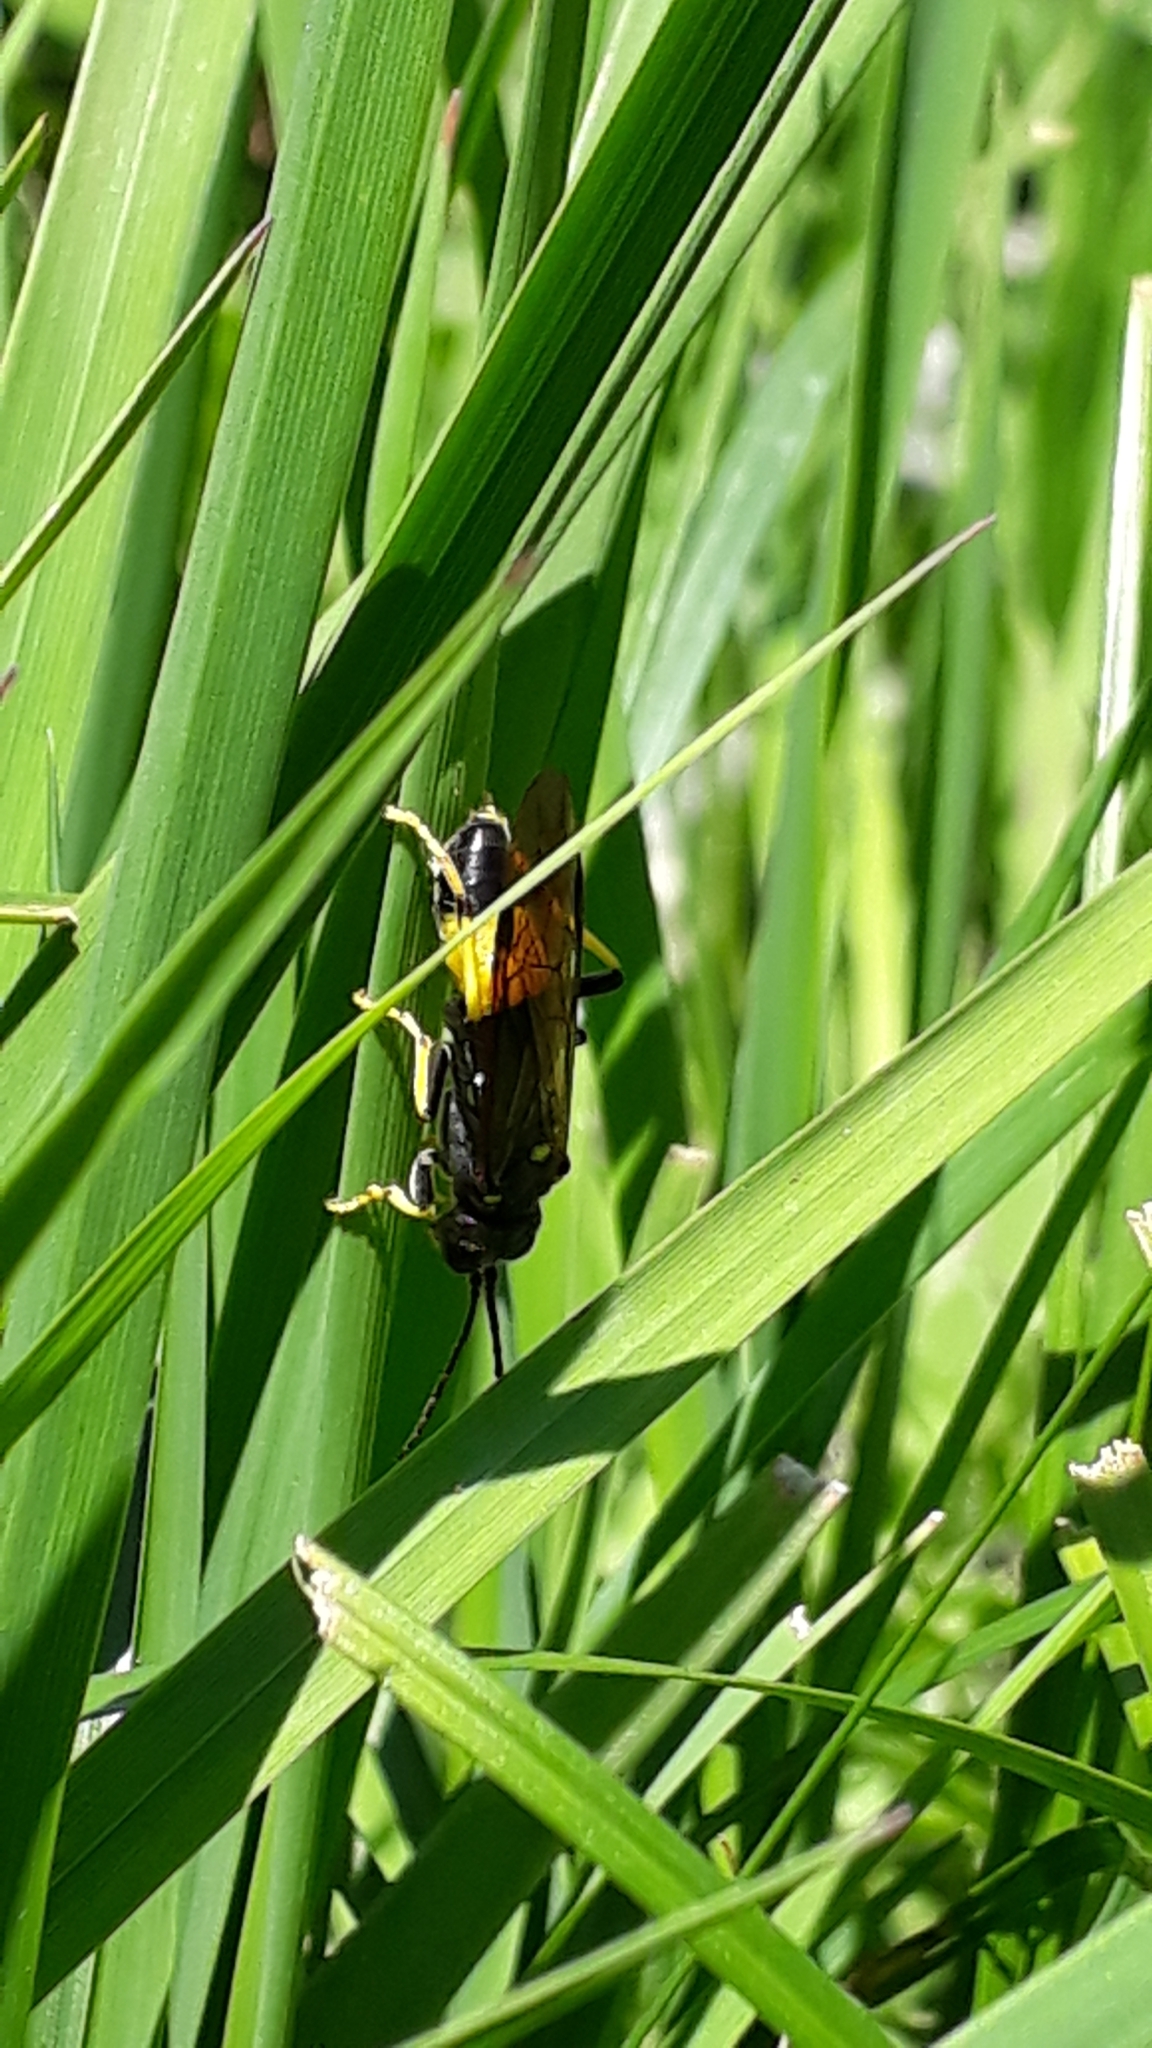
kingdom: Animalia
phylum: Arthropoda
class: Insecta
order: Hymenoptera
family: Tenthredinidae
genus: Tenthredo
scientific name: Tenthredo maculata
